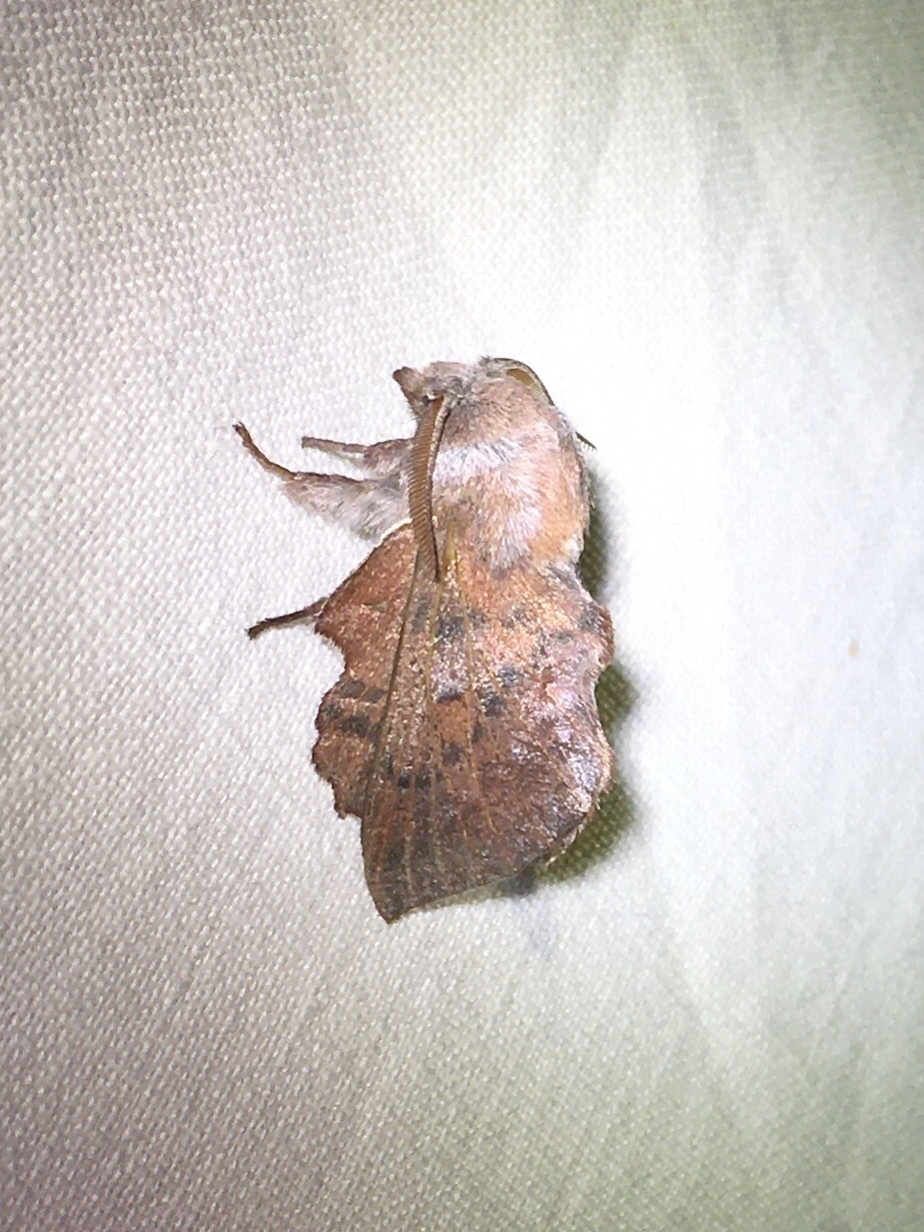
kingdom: Animalia
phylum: Arthropoda
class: Insecta
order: Lepidoptera
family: Lasiocampidae
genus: Phyllodesma
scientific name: Phyllodesma americana
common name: American lappet moth
